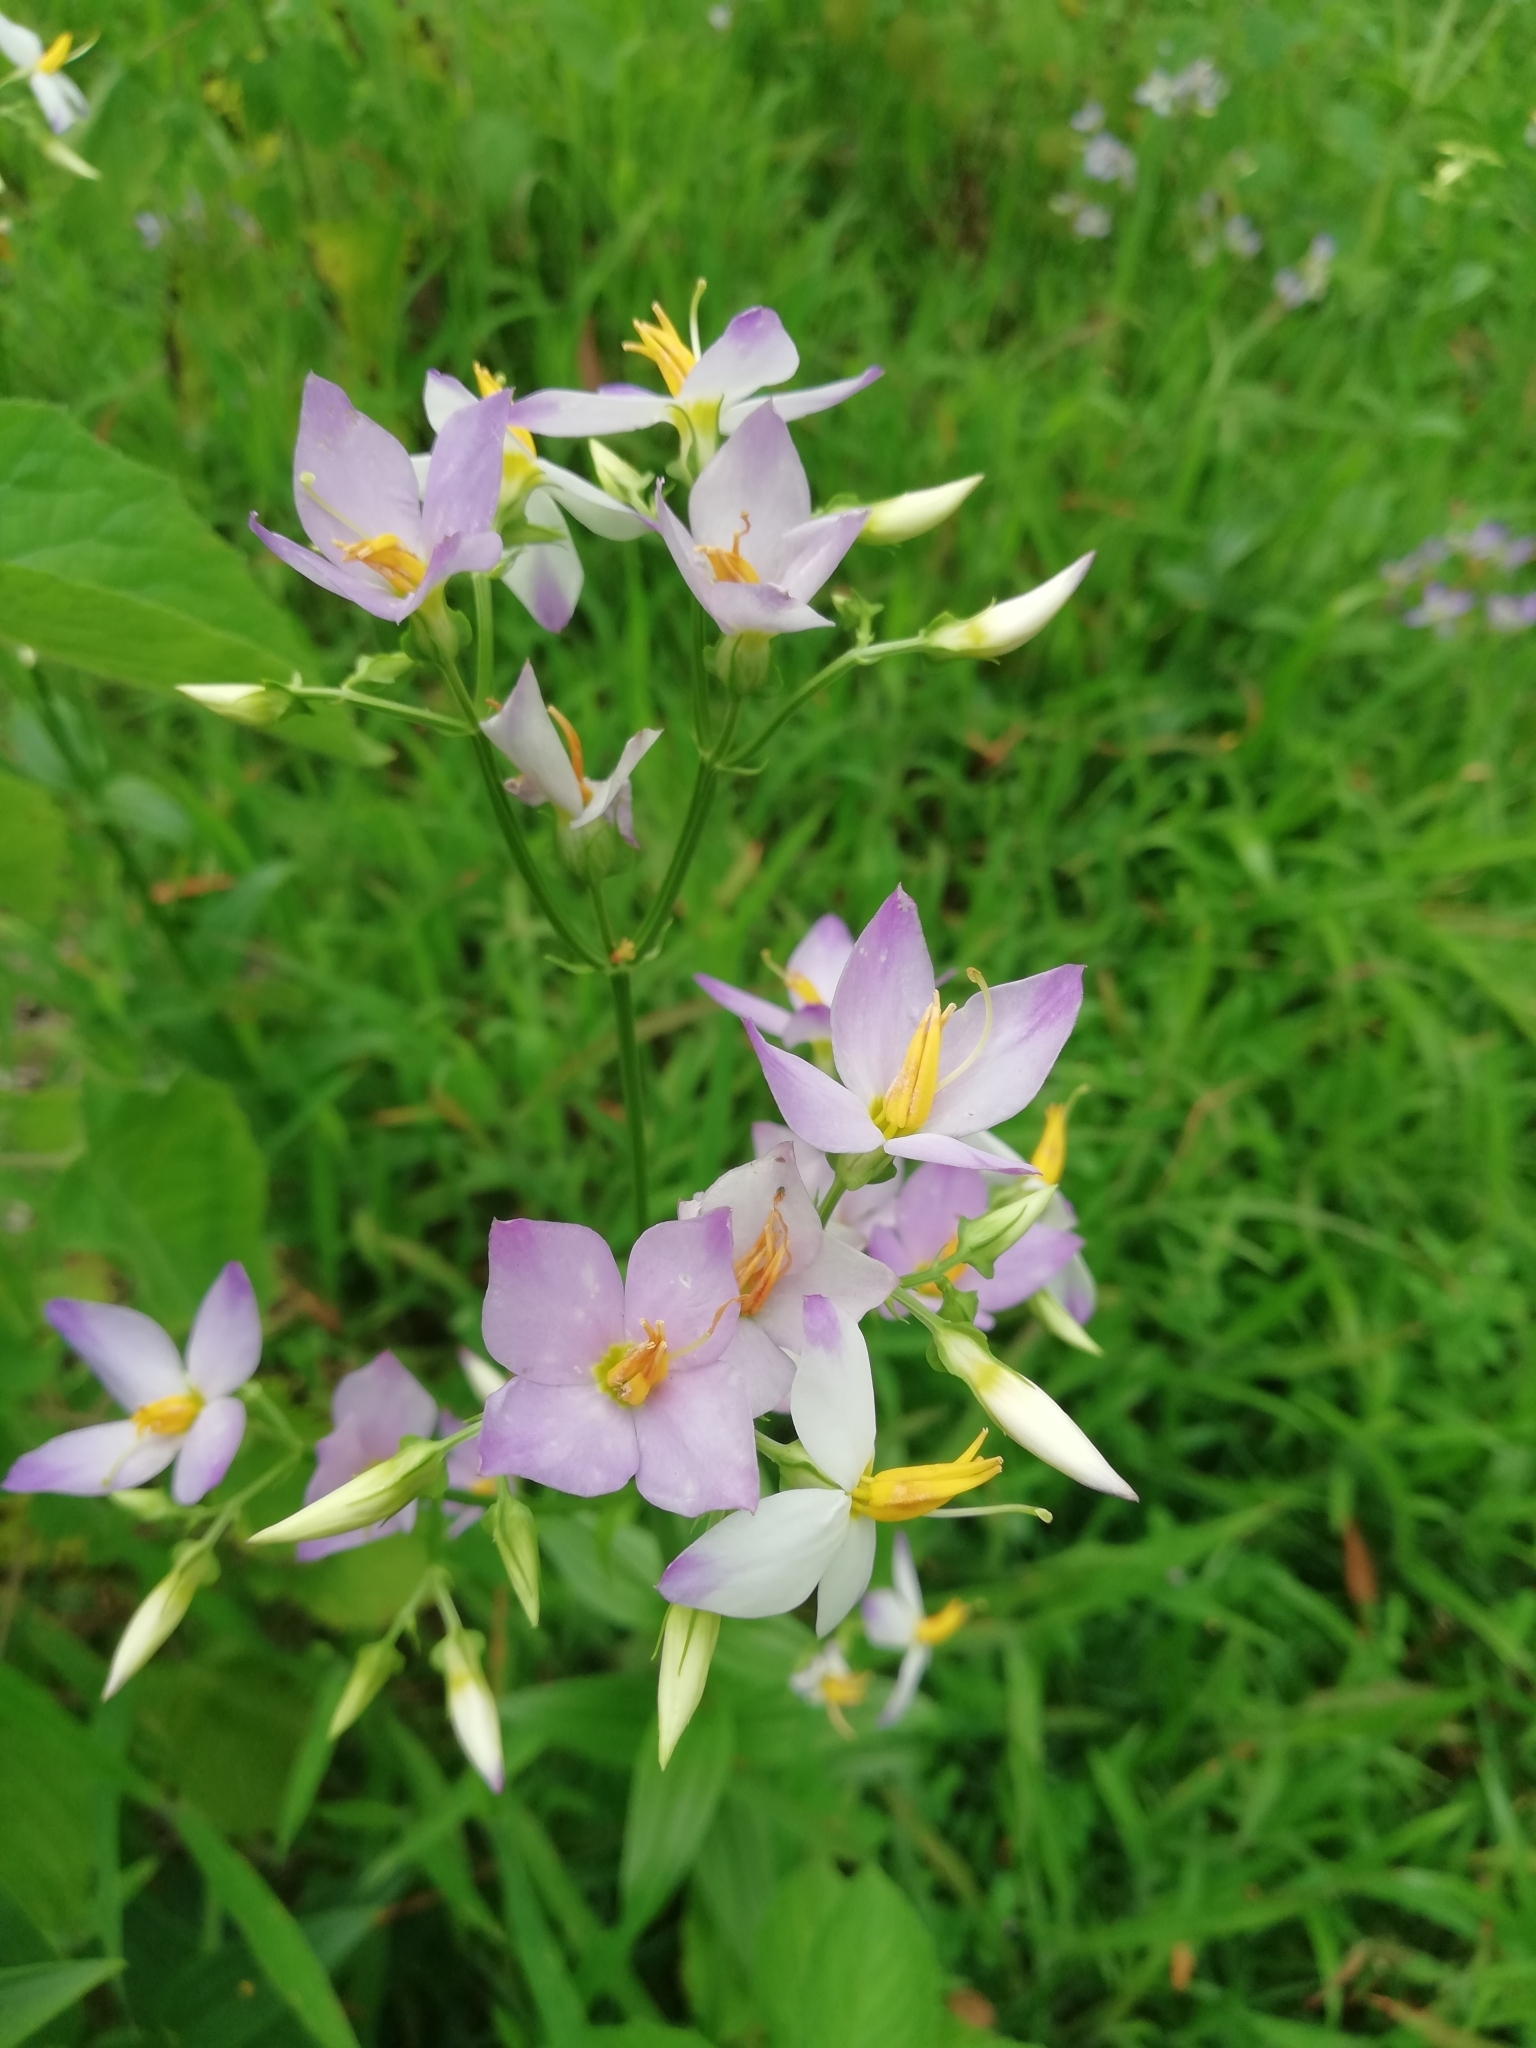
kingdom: Plantae
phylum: Tracheophyta
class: Magnoliopsida
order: Gentianales
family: Gentianaceae
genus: Exacum
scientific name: Exacum tetragonum
